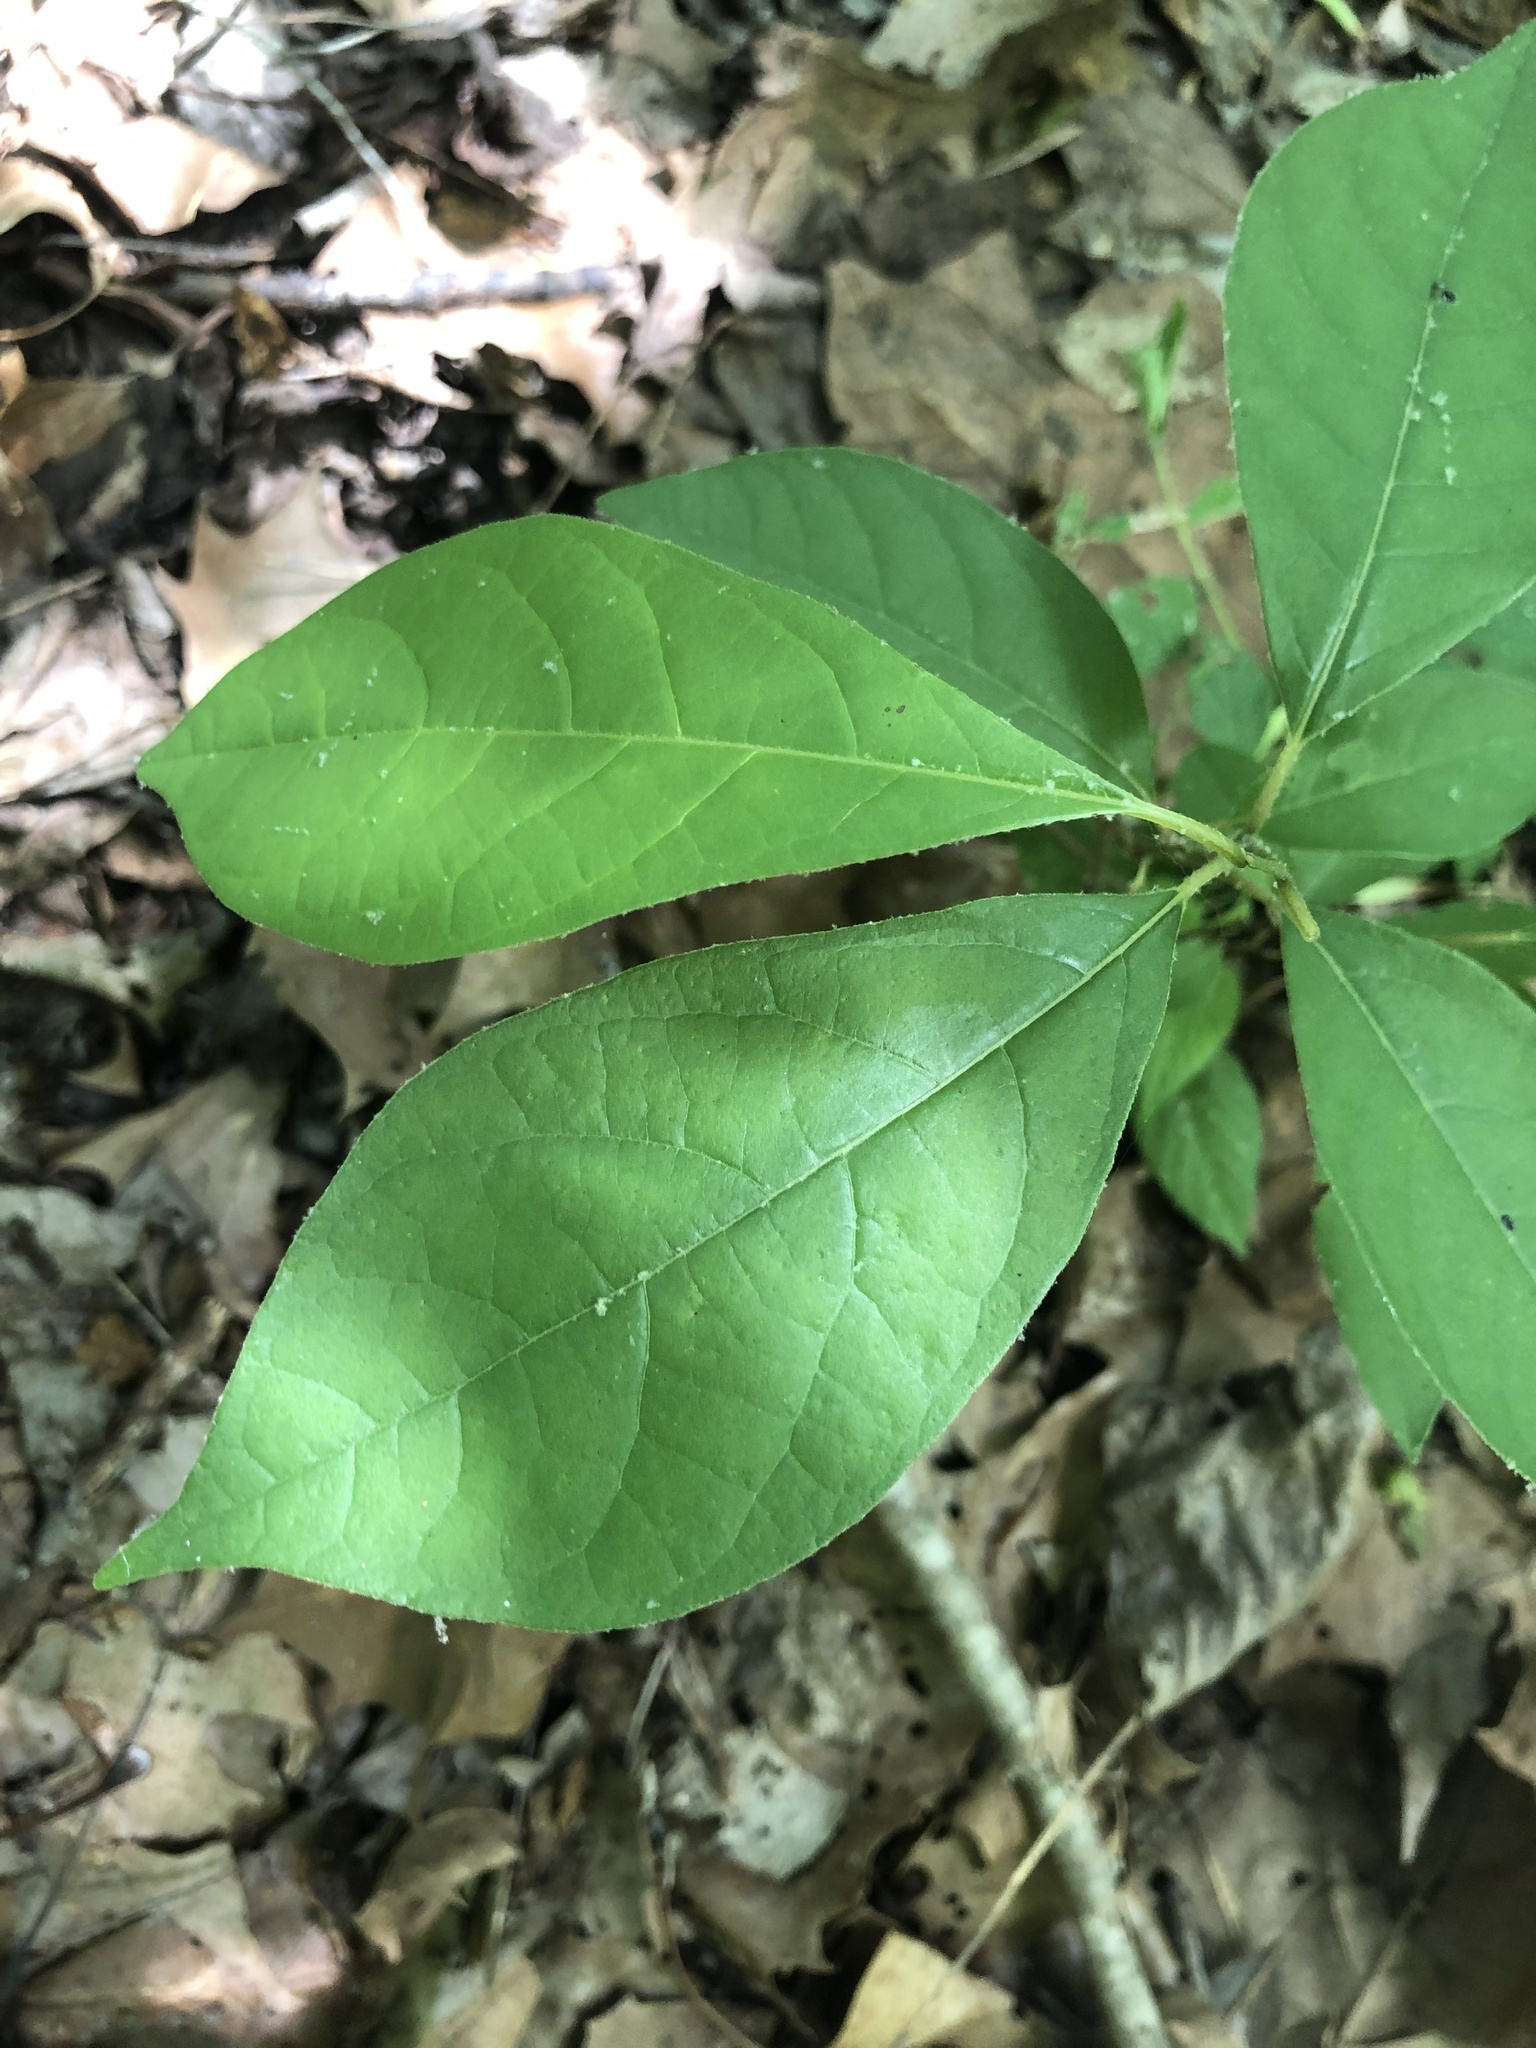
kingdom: Plantae
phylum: Tracheophyta
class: Magnoliopsida
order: Laurales
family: Lauraceae
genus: Lindera
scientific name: Lindera benzoin
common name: Spicebush
